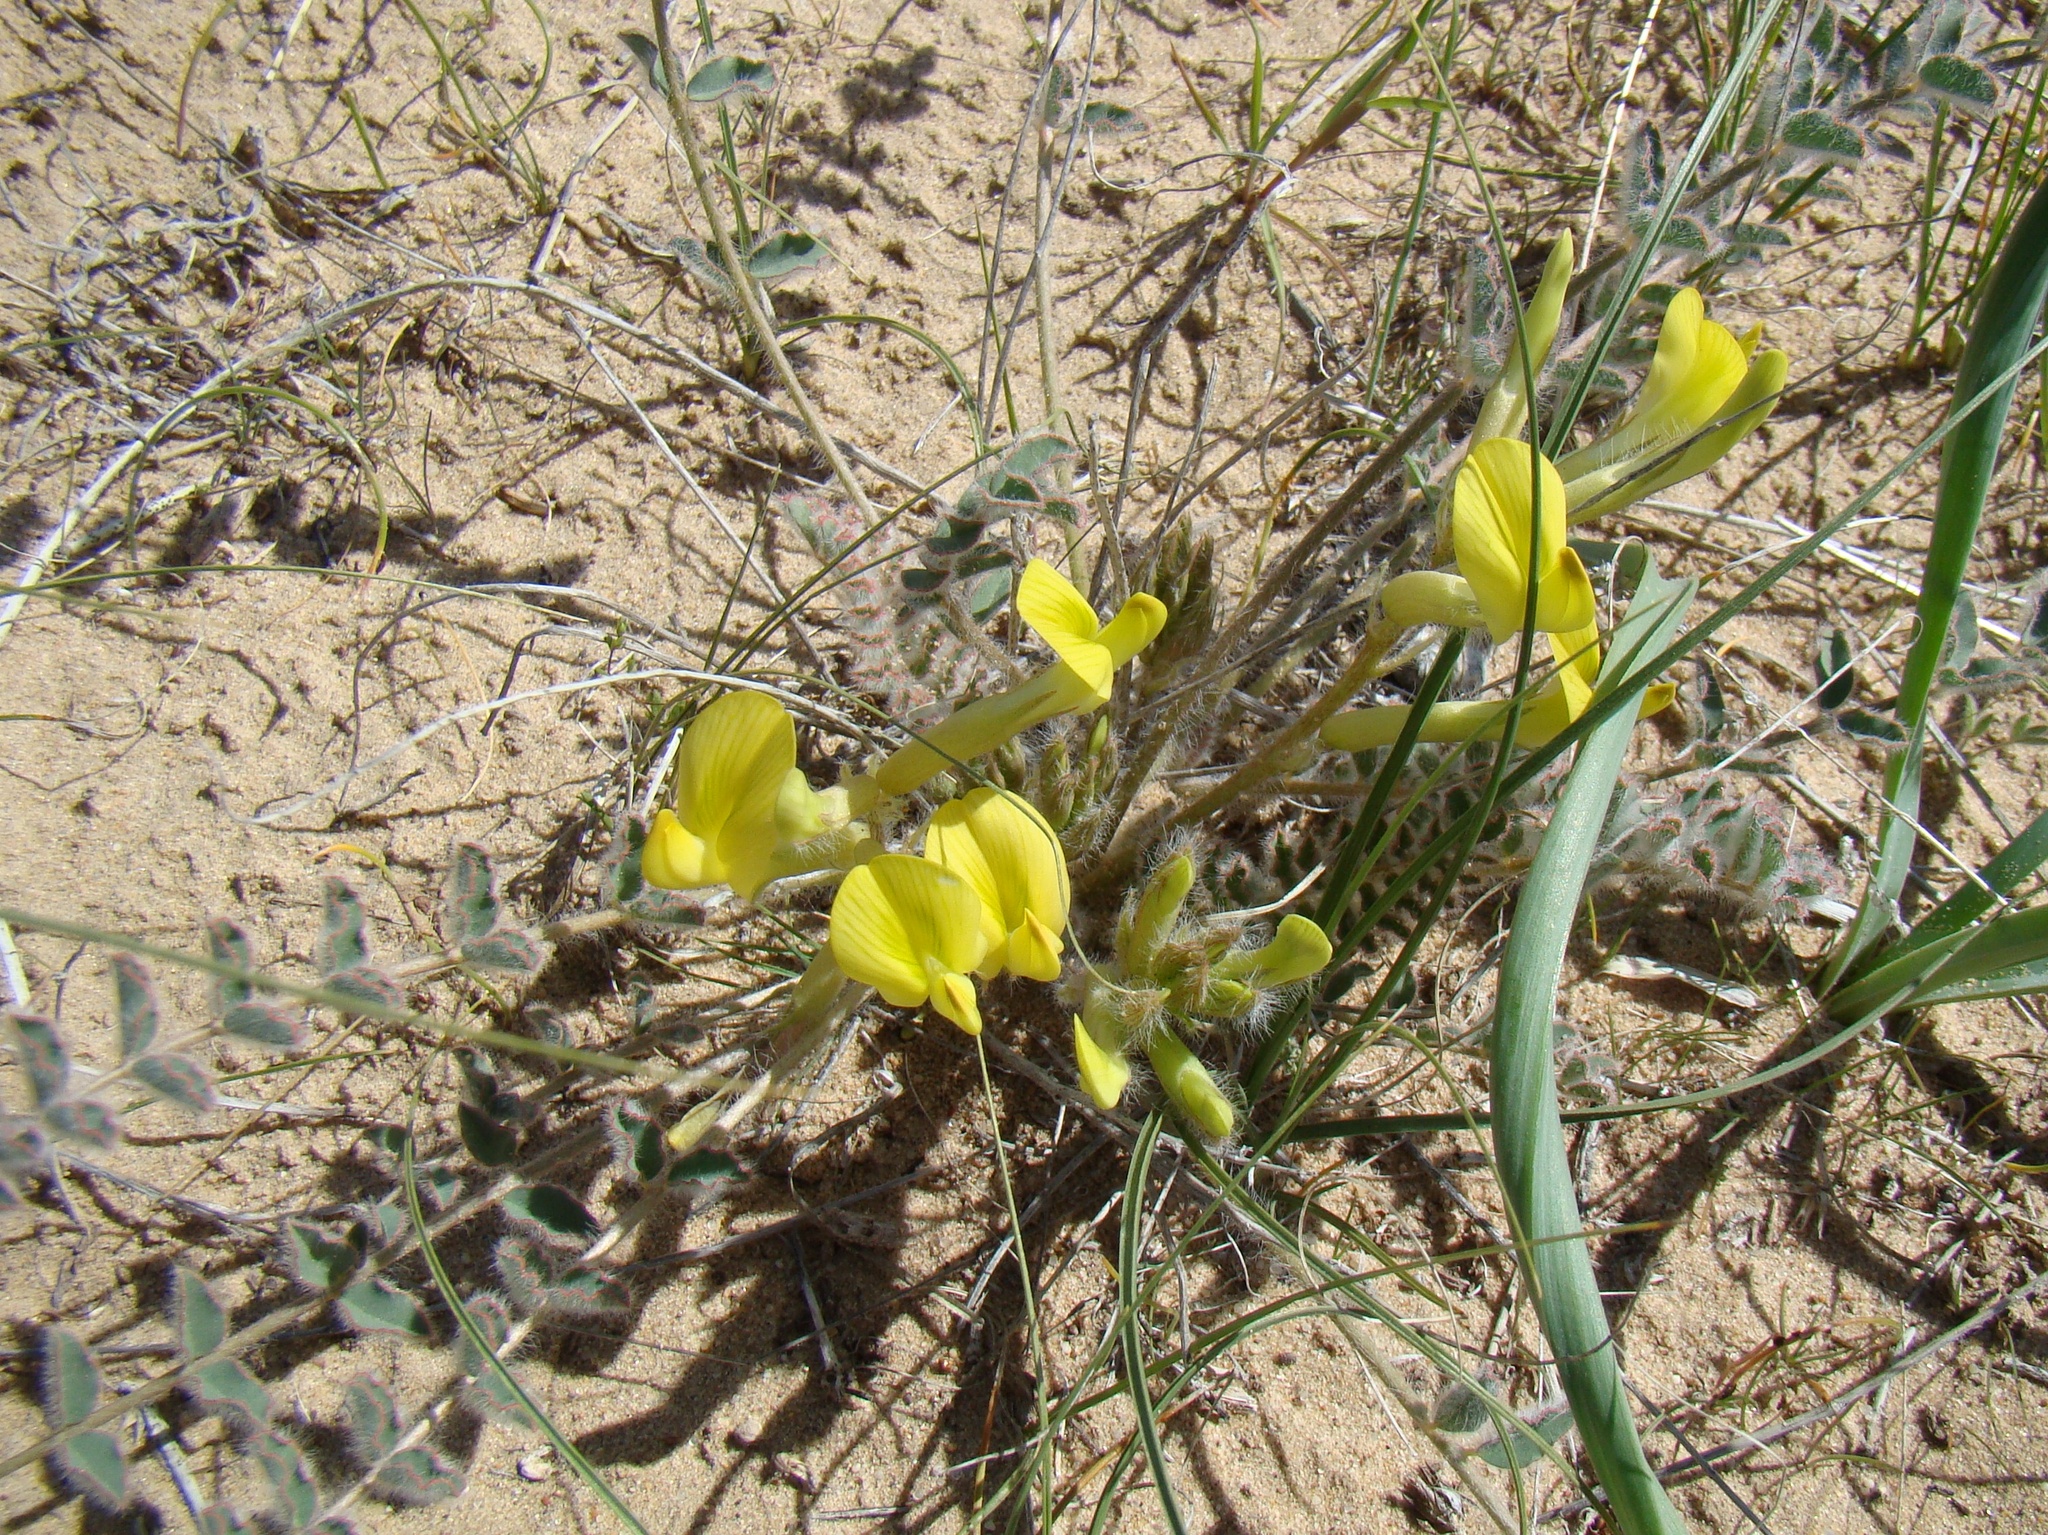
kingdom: Plantae
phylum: Tracheophyta
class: Magnoliopsida
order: Fabales
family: Fabaceae
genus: Astragalus
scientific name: Astragalus flexus
